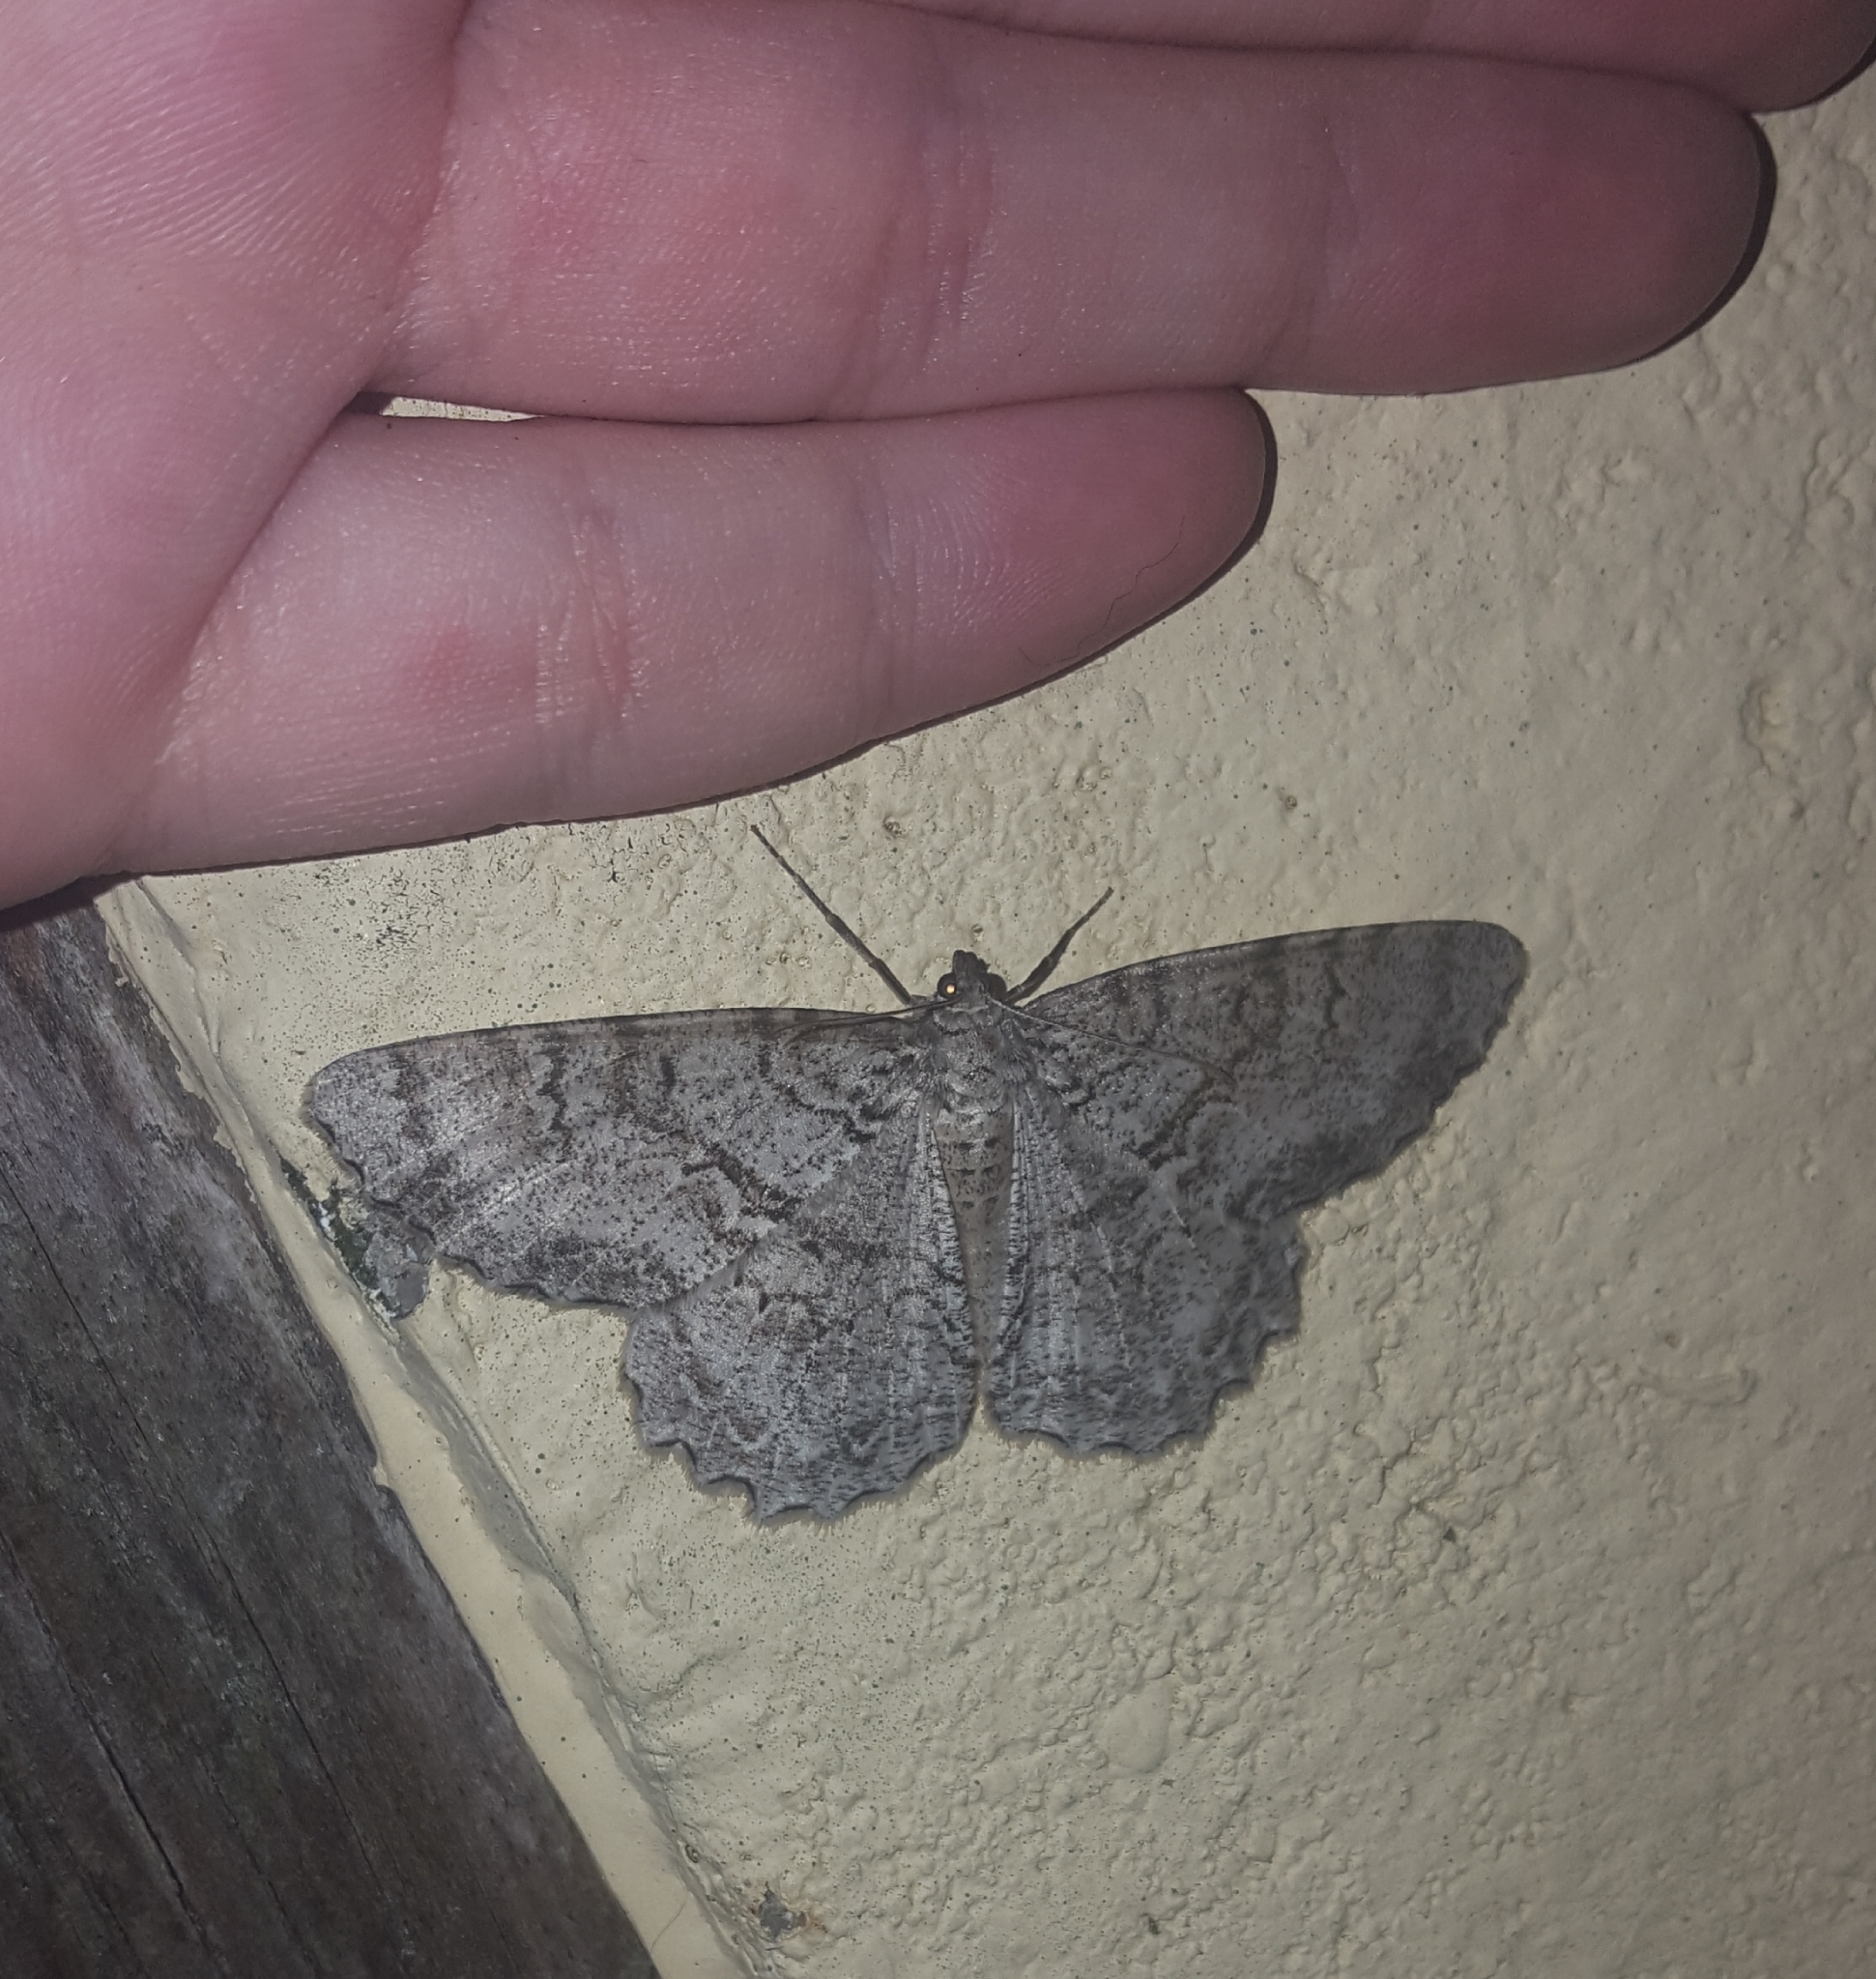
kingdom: Animalia
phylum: Arthropoda
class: Insecta
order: Lepidoptera
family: Geometridae
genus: Epimecis
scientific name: Epimecis hortaria
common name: Tulip-tree beauty
